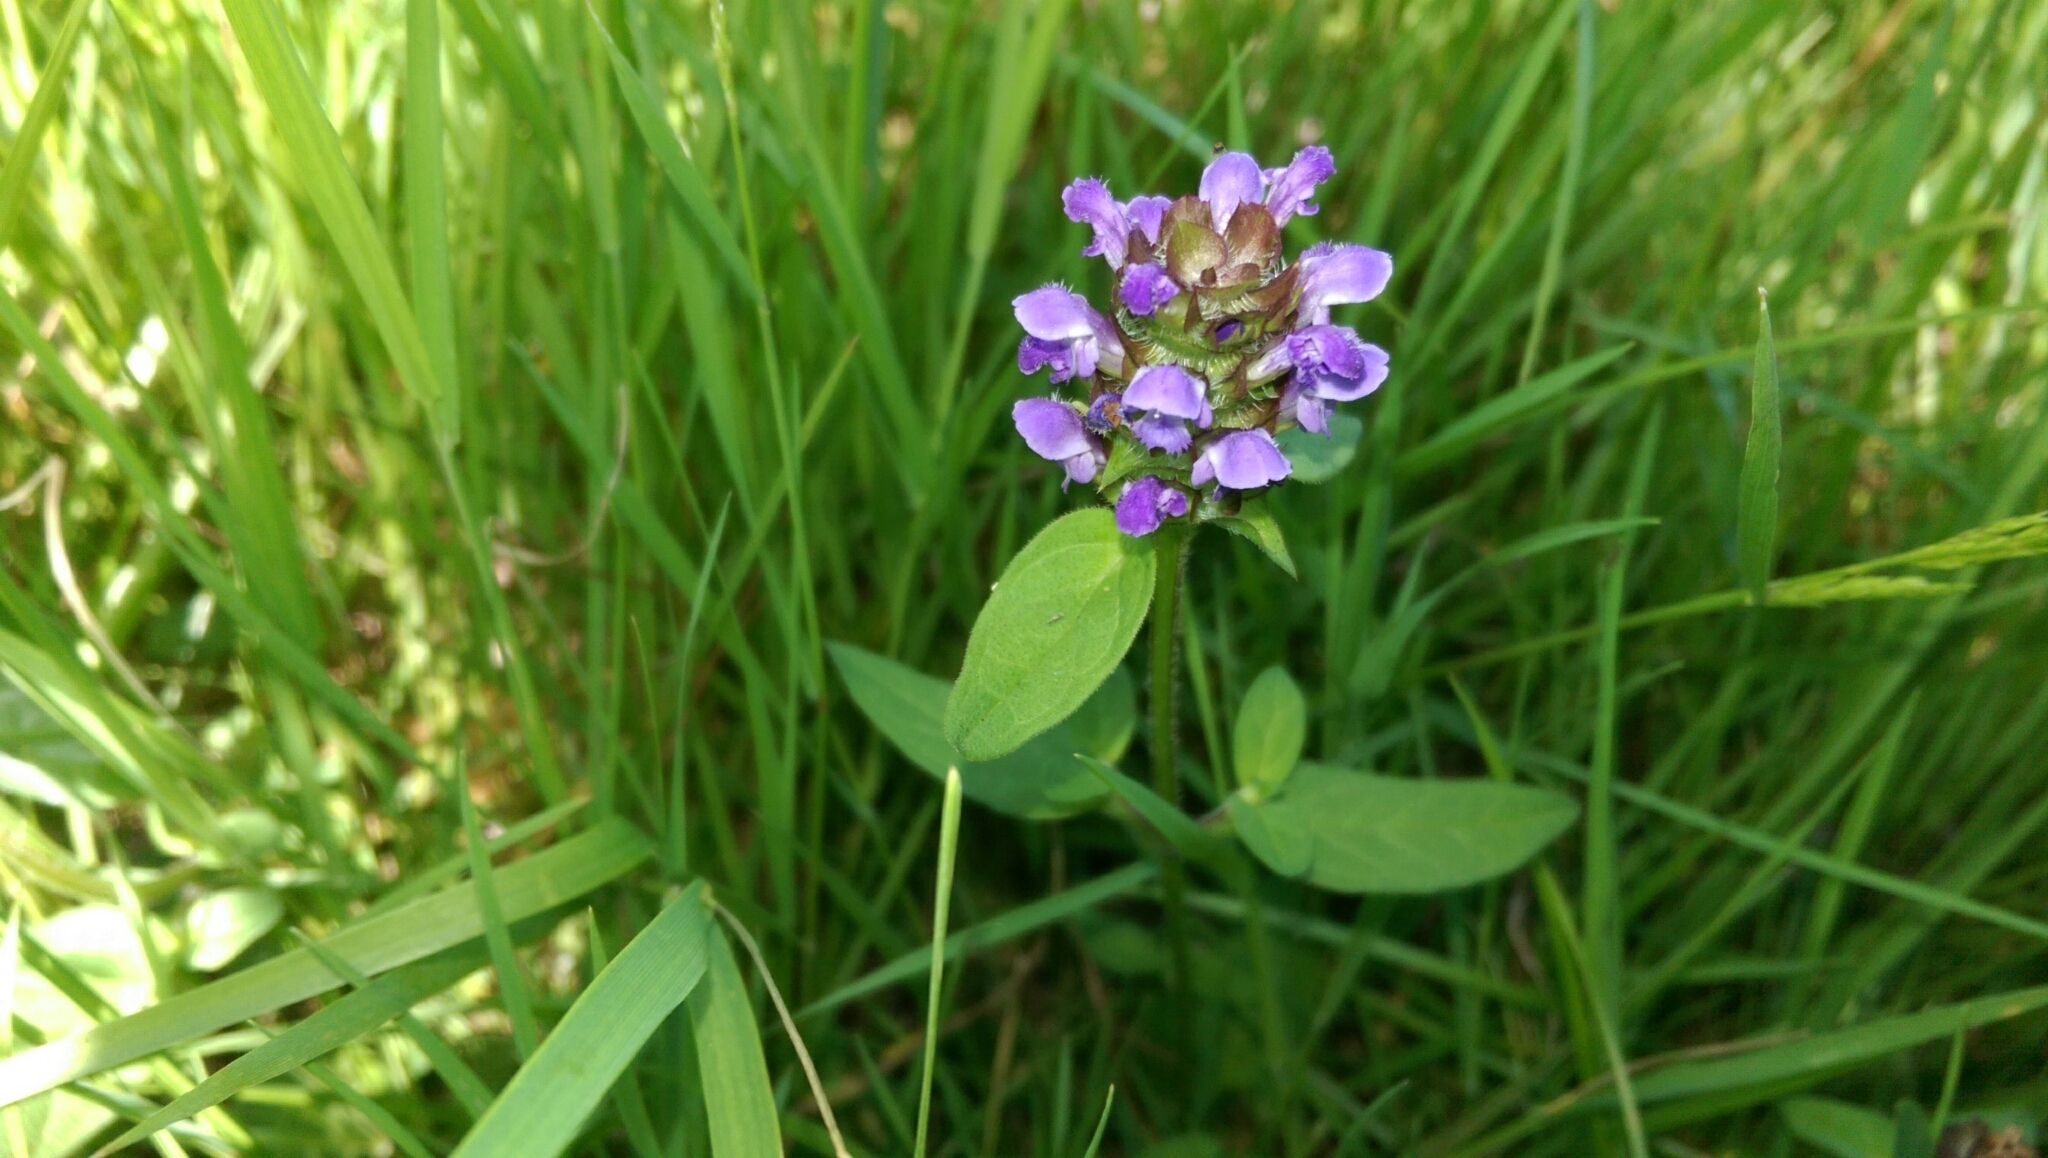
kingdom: Plantae
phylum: Tracheophyta
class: Magnoliopsida
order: Lamiales
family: Lamiaceae
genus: Prunella
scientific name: Prunella vulgaris
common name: Heal-all
